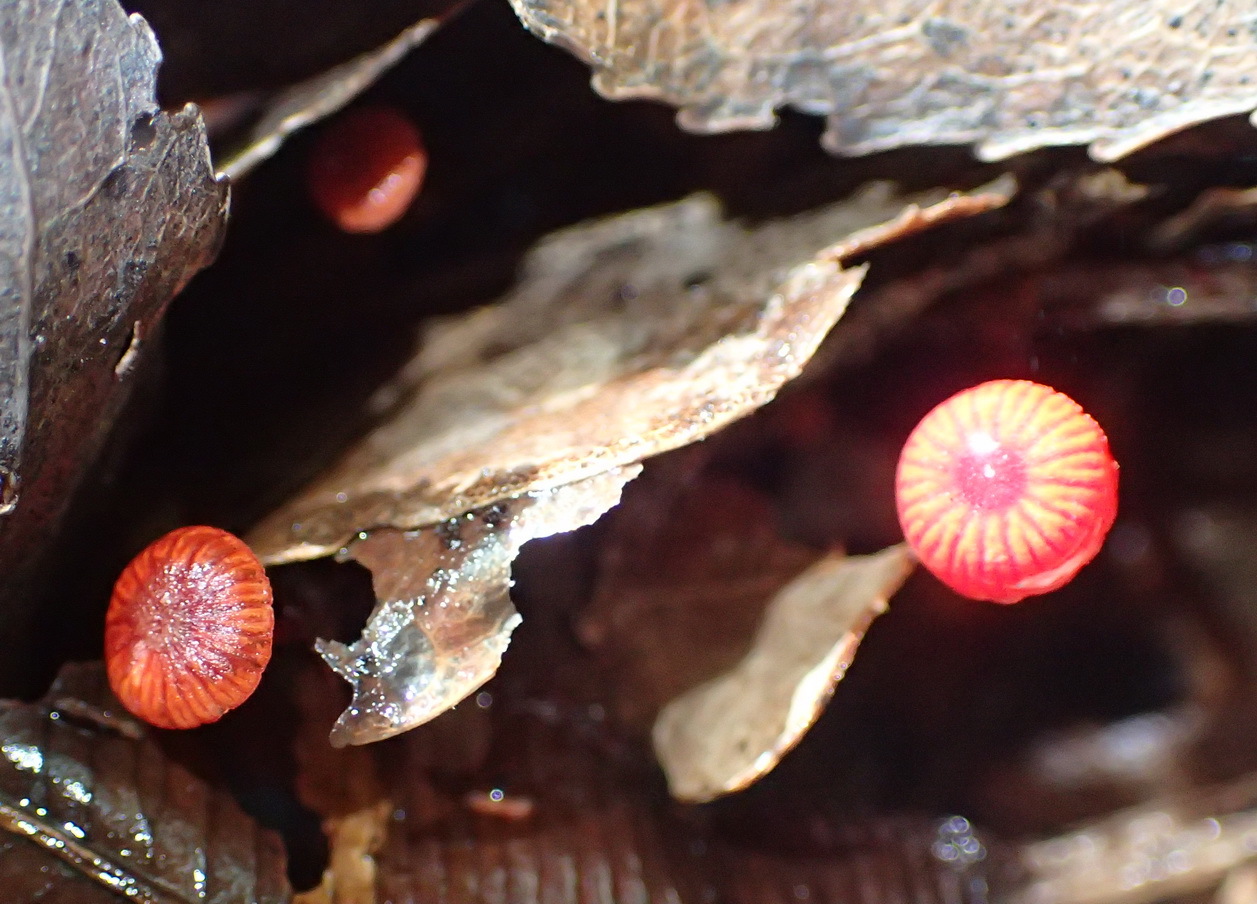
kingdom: Fungi
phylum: Basidiomycota
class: Agaricomycetes
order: Agaricales
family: Mycenaceae
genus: Cruentomycena
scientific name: Cruentomycena viscidocruenta
